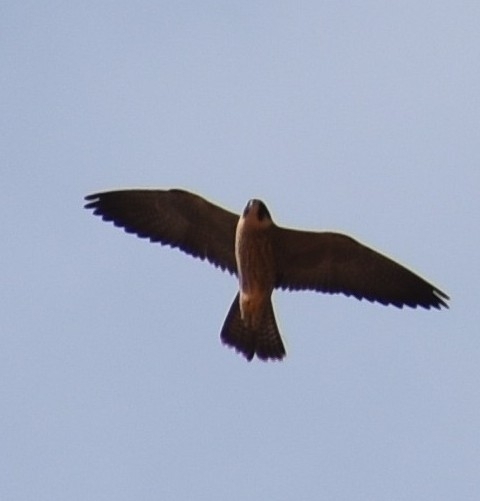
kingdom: Animalia
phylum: Chordata
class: Aves
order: Falconiformes
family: Falconidae
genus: Falco
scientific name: Falco peregrinus
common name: Peregrine falcon
